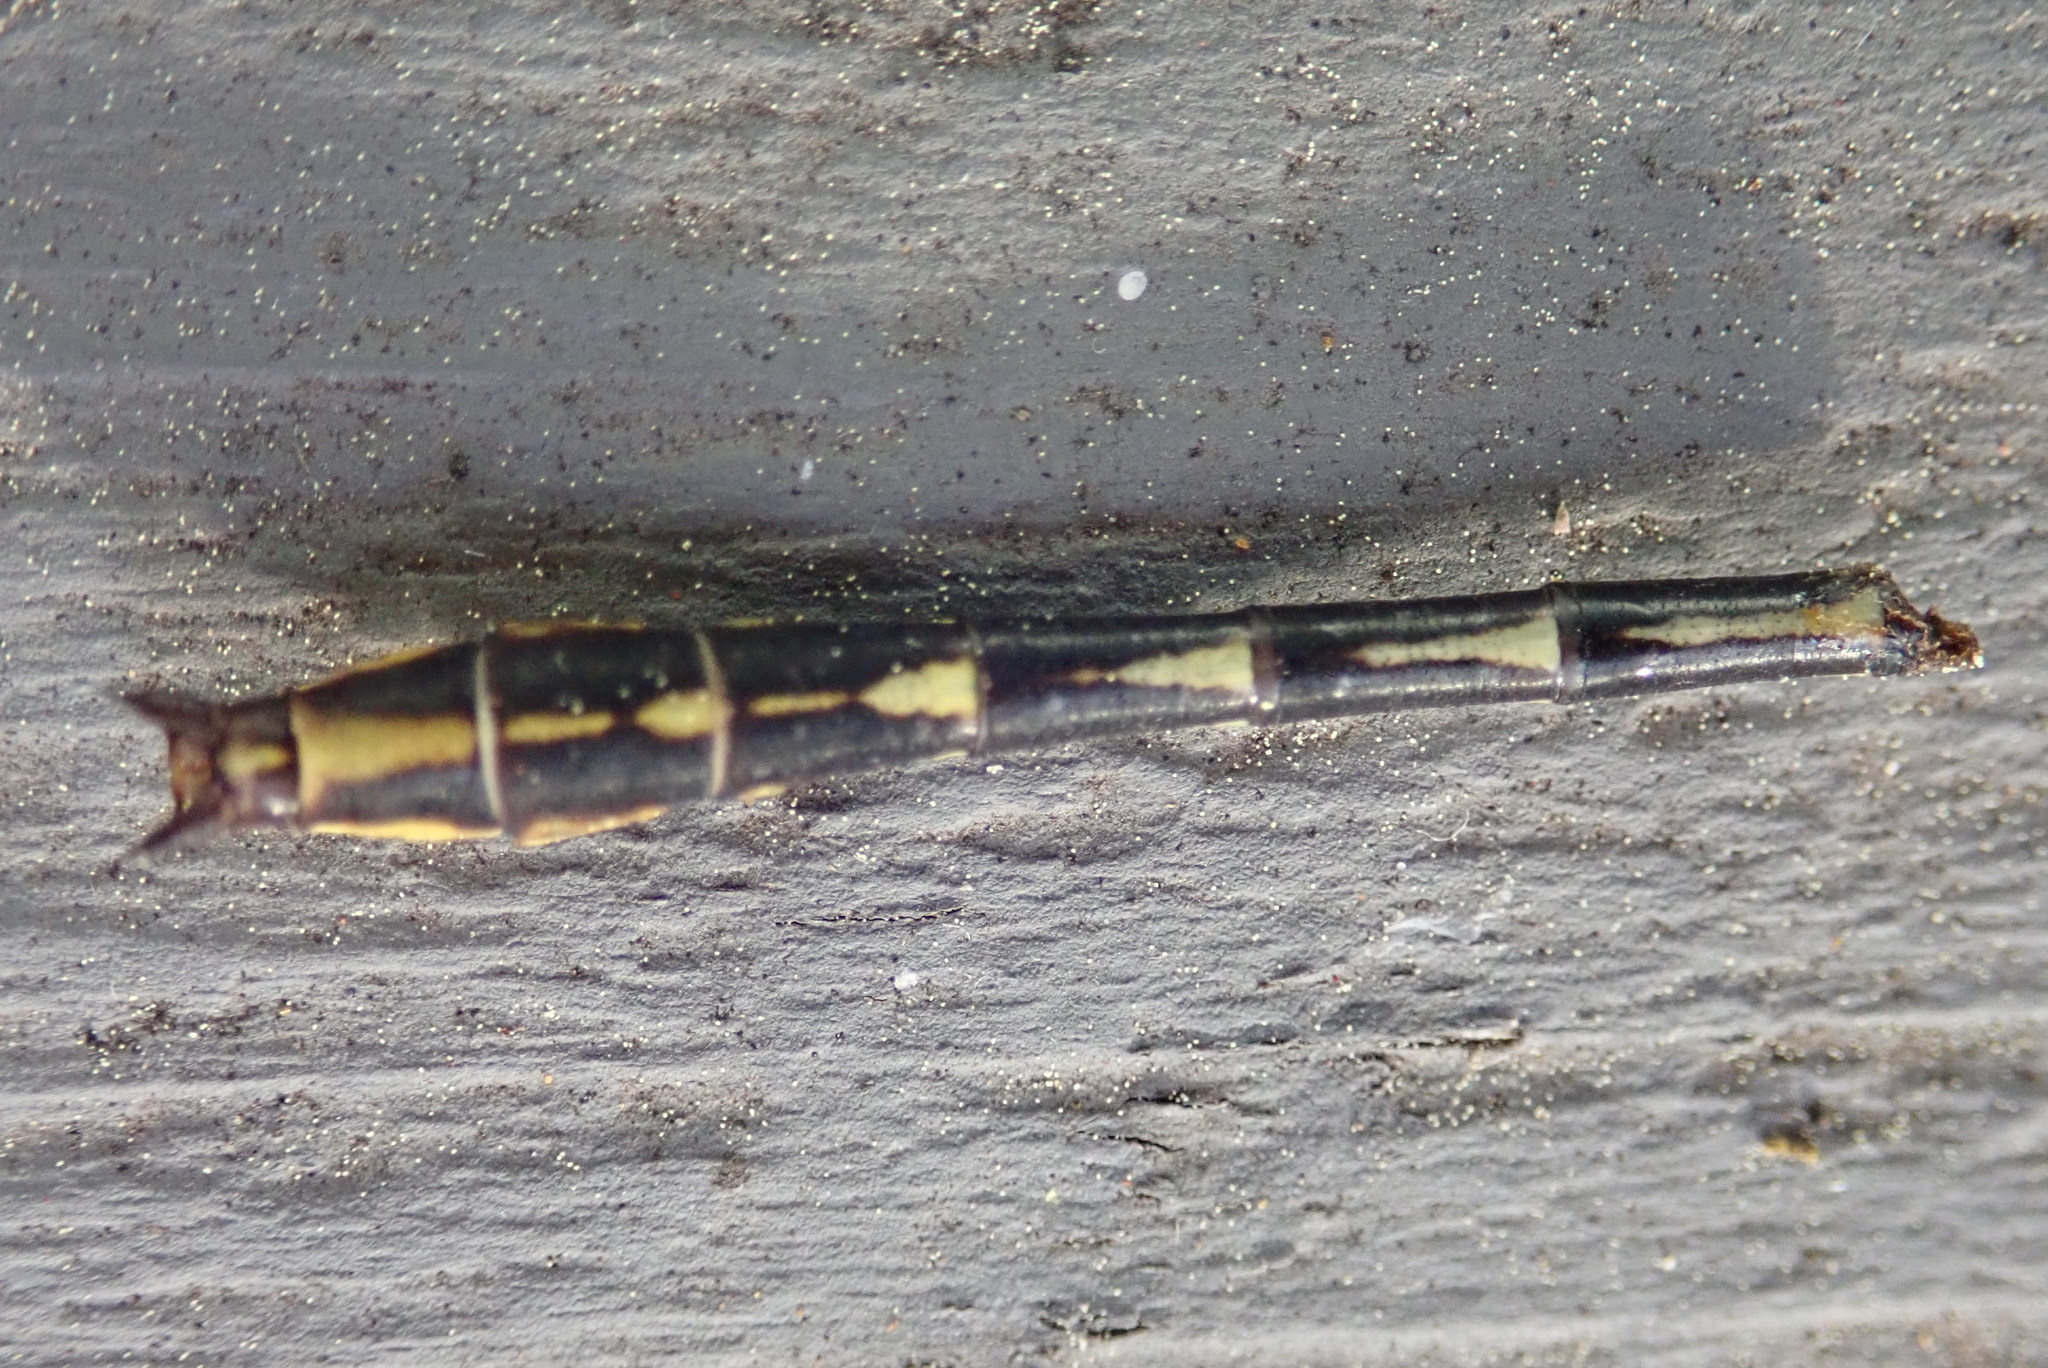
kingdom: Animalia
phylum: Arthropoda
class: Insecta
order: Odonata
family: Gomphidae
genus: Phanogomphus
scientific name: Phanogomphus exilis
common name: Lancet clubtail
